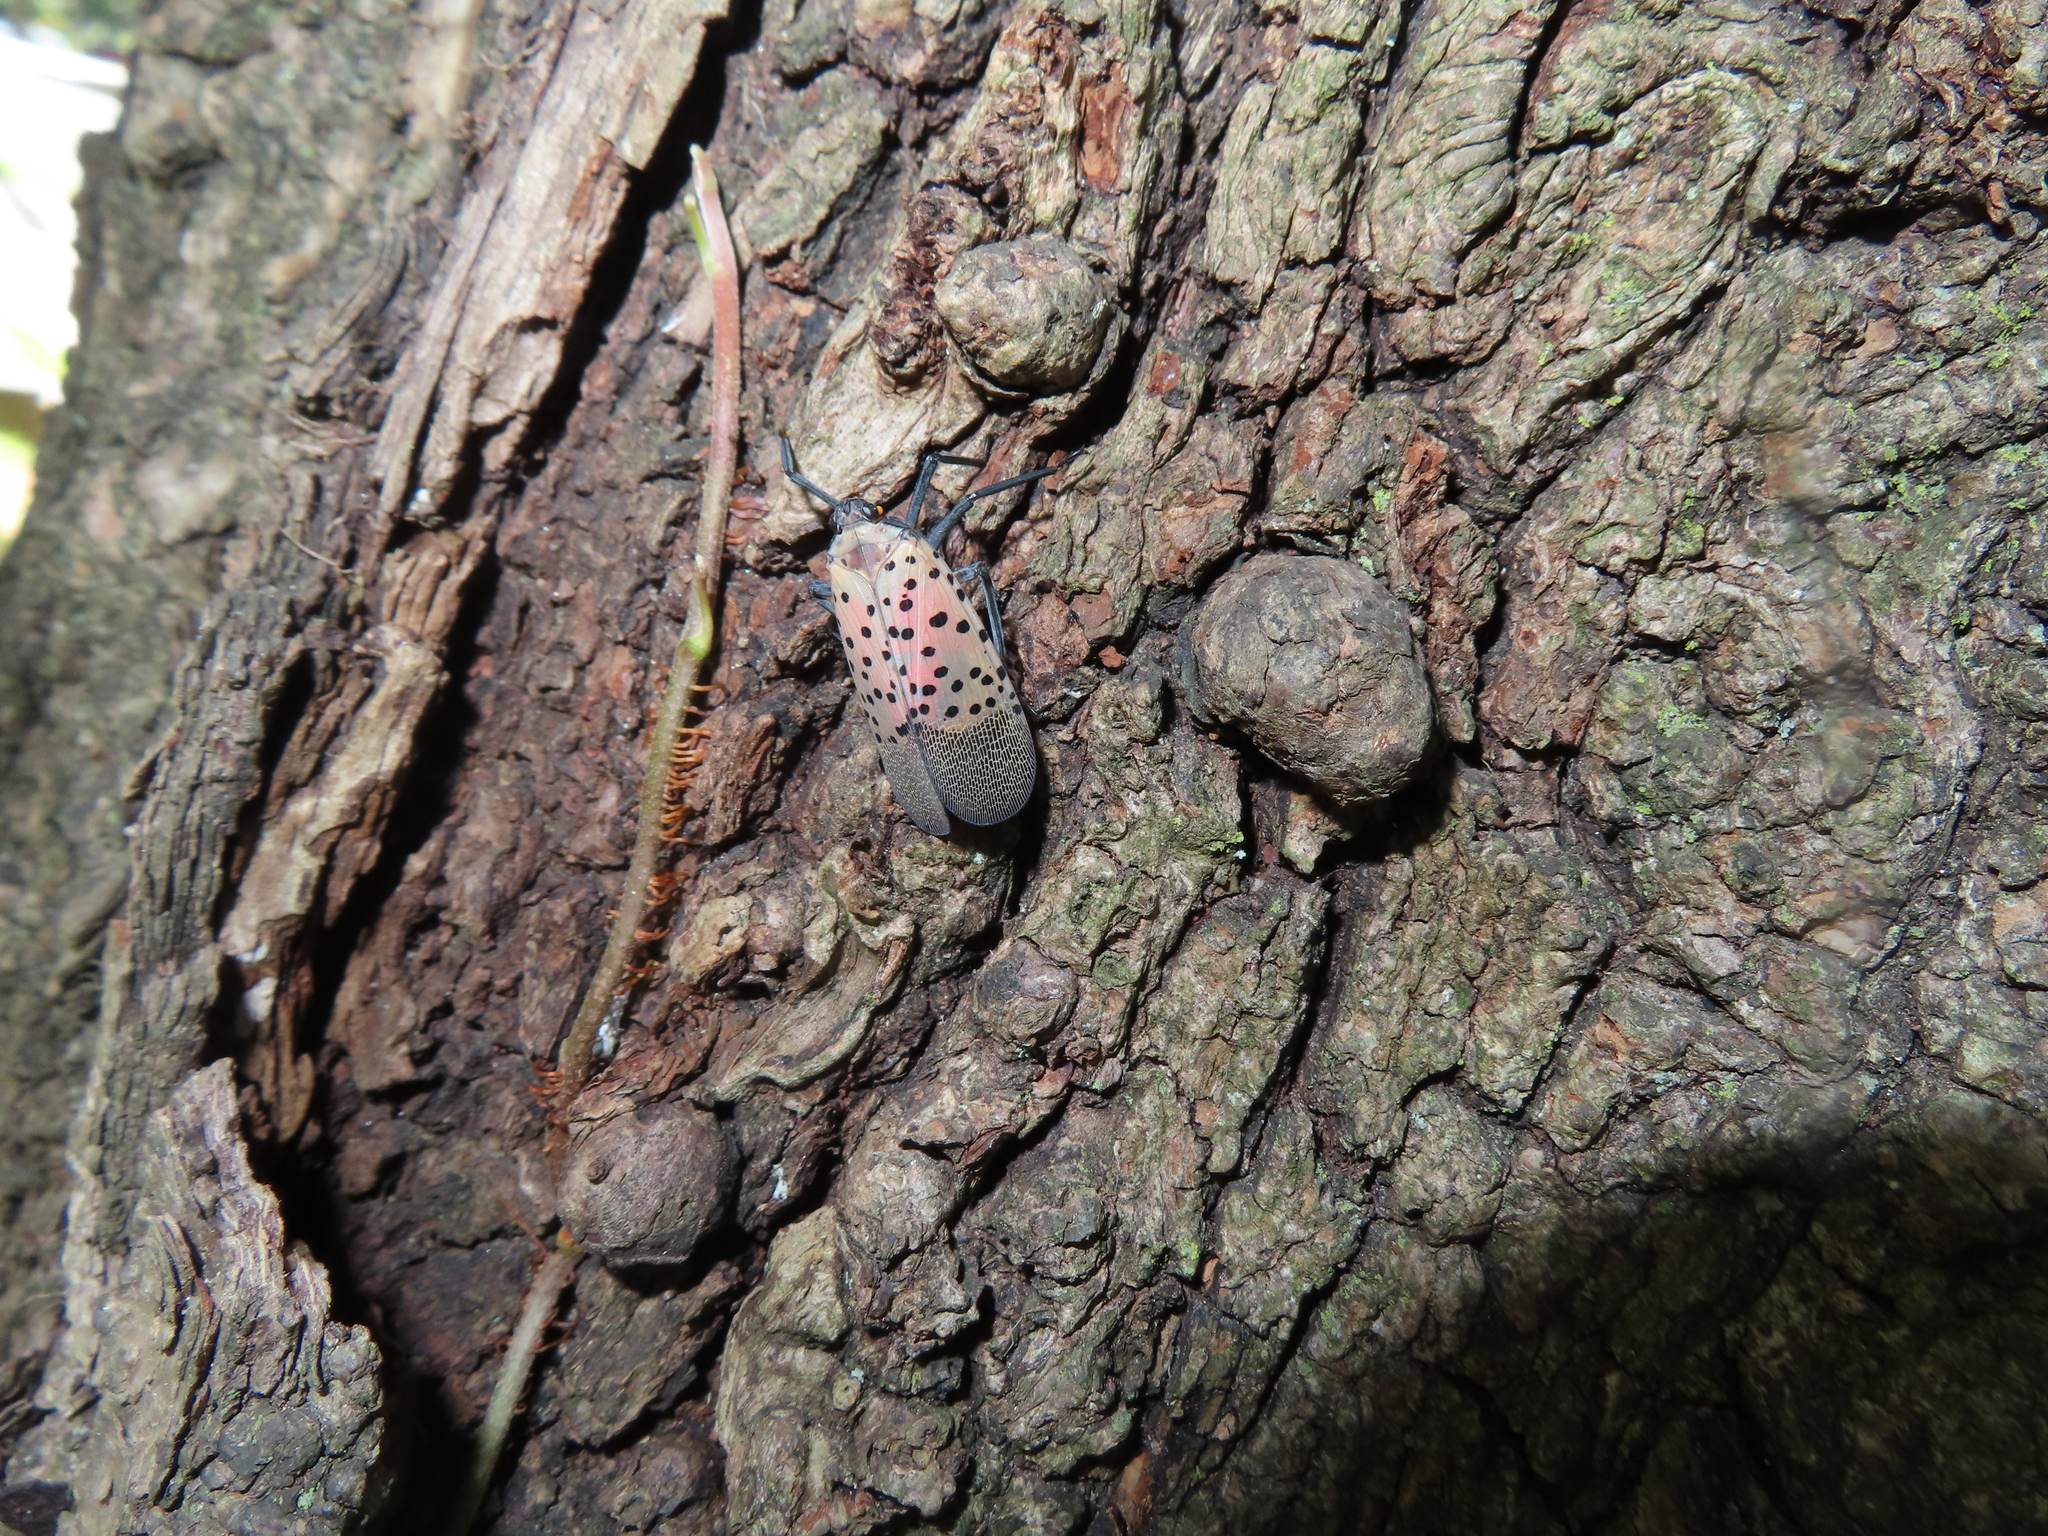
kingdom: Animalia
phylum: Arthropoda
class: Insecta
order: Hemiptera
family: Fulgoridae
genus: Lycorma
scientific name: Lycorma delicatula
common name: Spotted lanternfly
